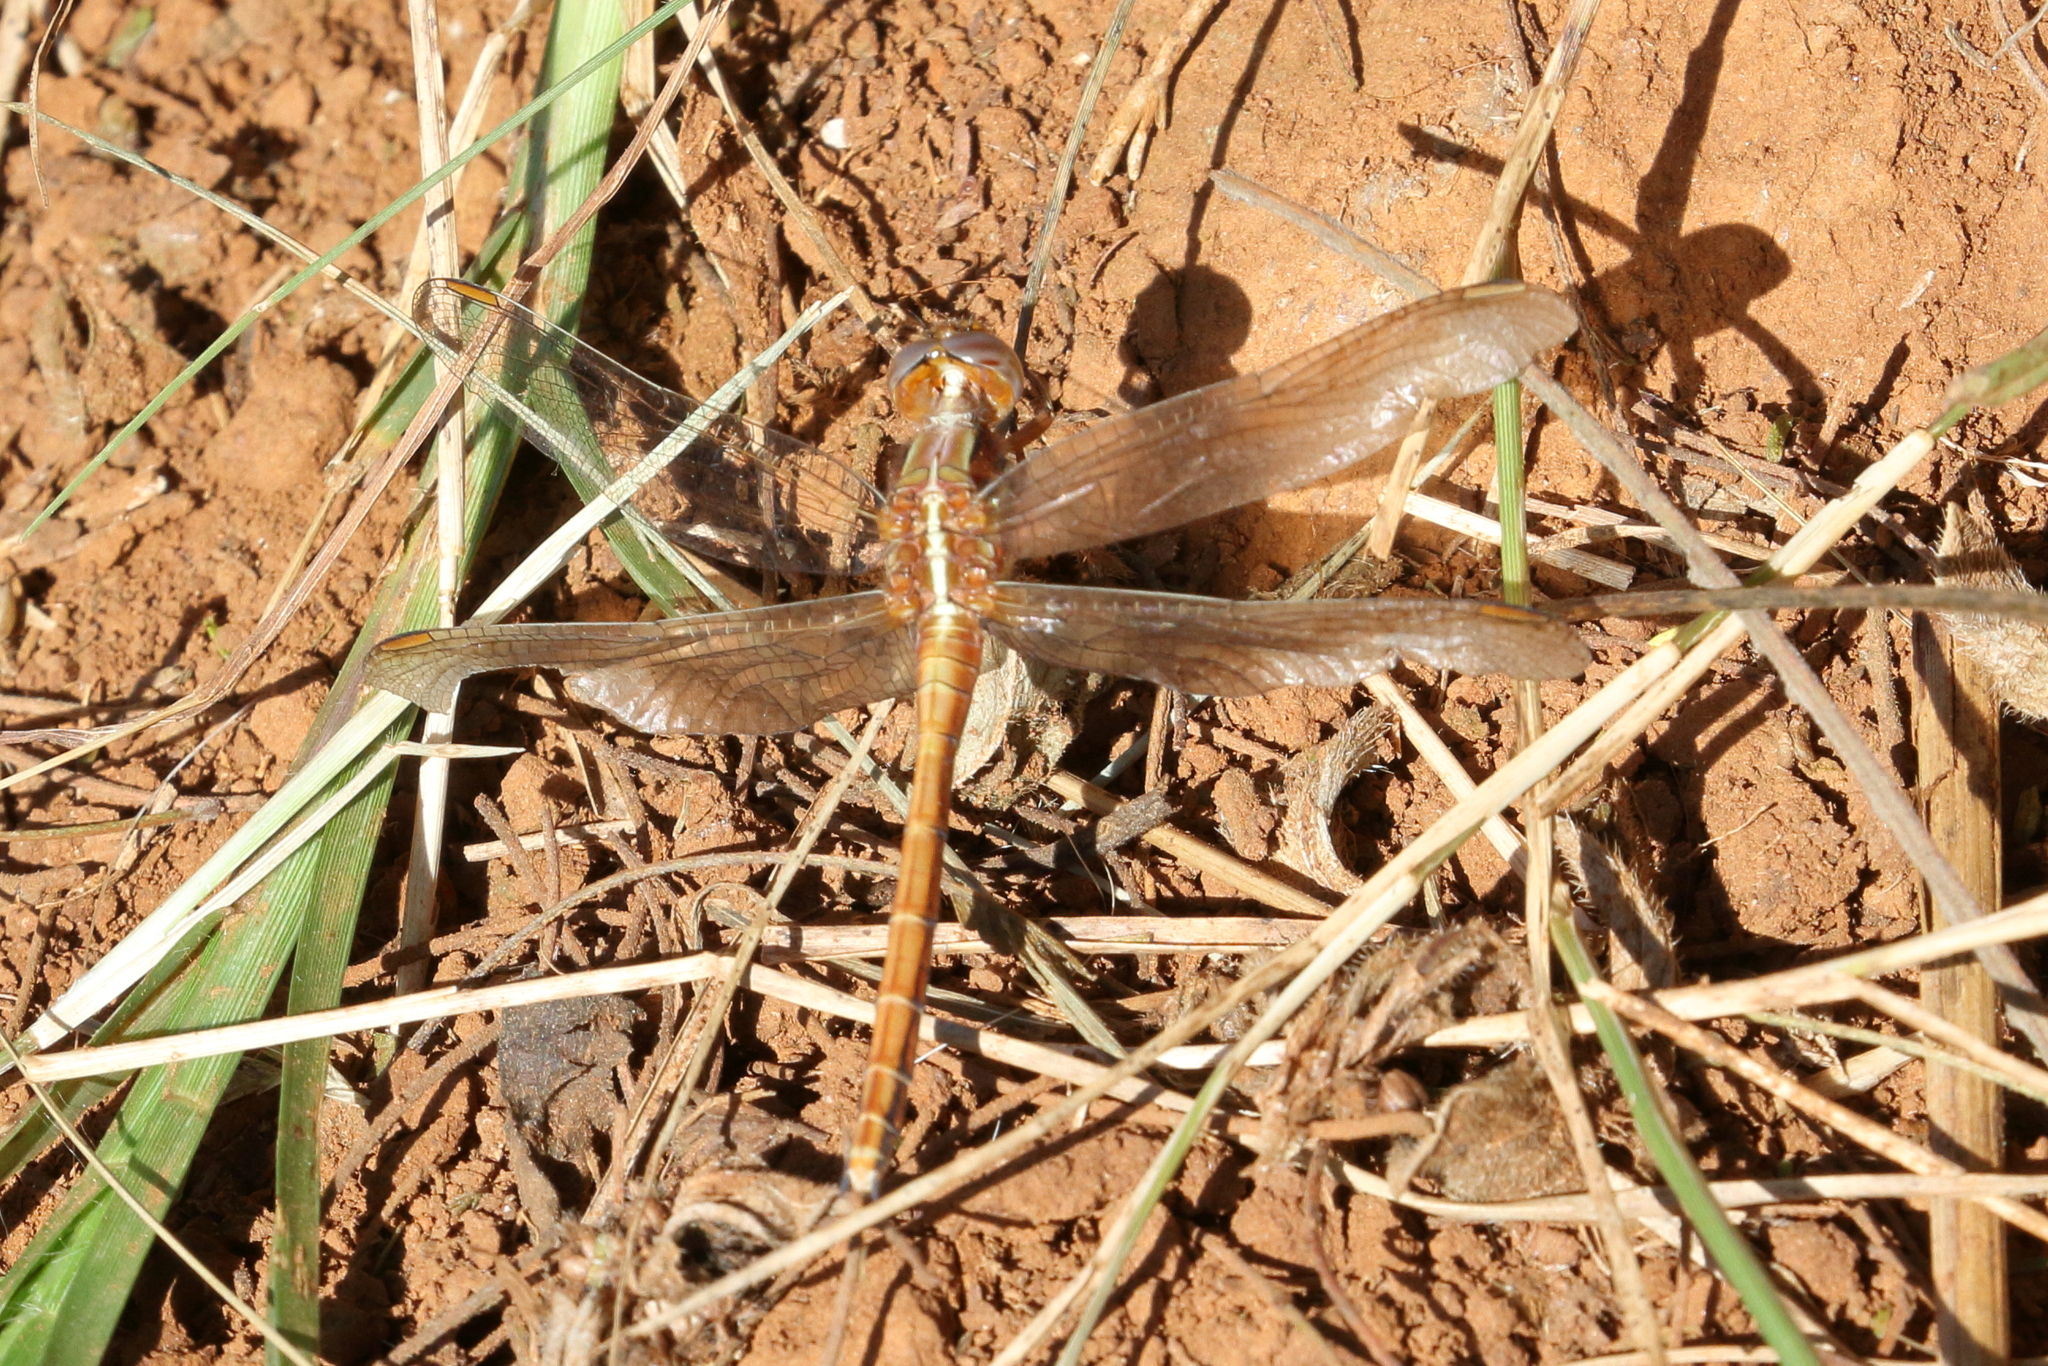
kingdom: Animalia
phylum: Arthropoda
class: Insecta
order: Odonata
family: Libellulidae
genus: Orthetrum
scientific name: Orthetrum caffrum
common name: Two-striped skimmer
